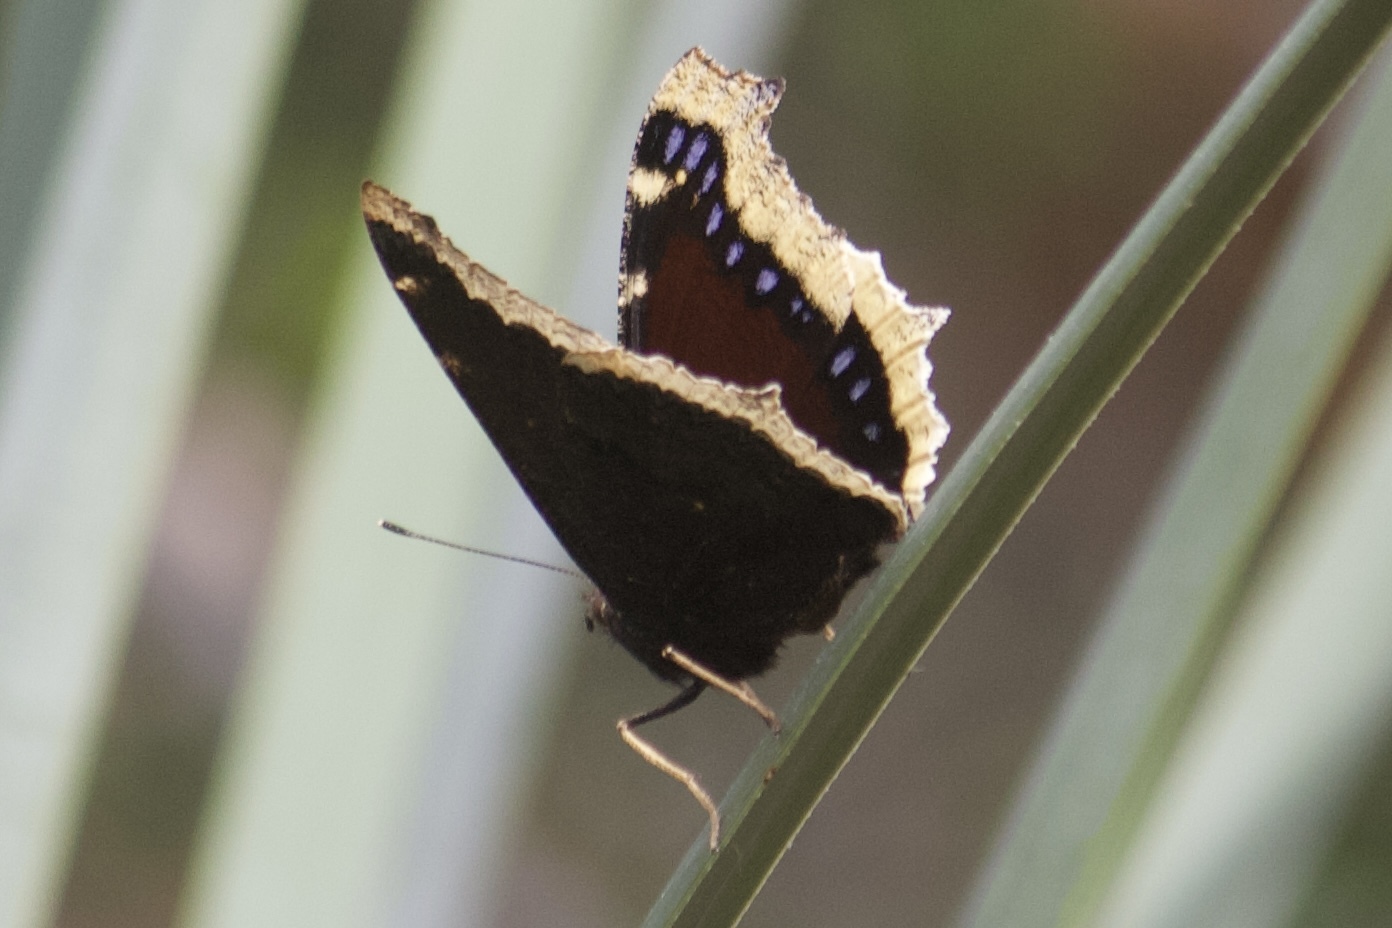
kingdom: Animalia
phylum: Arthropoda
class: Insecta
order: Lepidoptera
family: Nymphalidae
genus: Nymphalis
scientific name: Nymphalis antiopa
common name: Camberwell beauty
